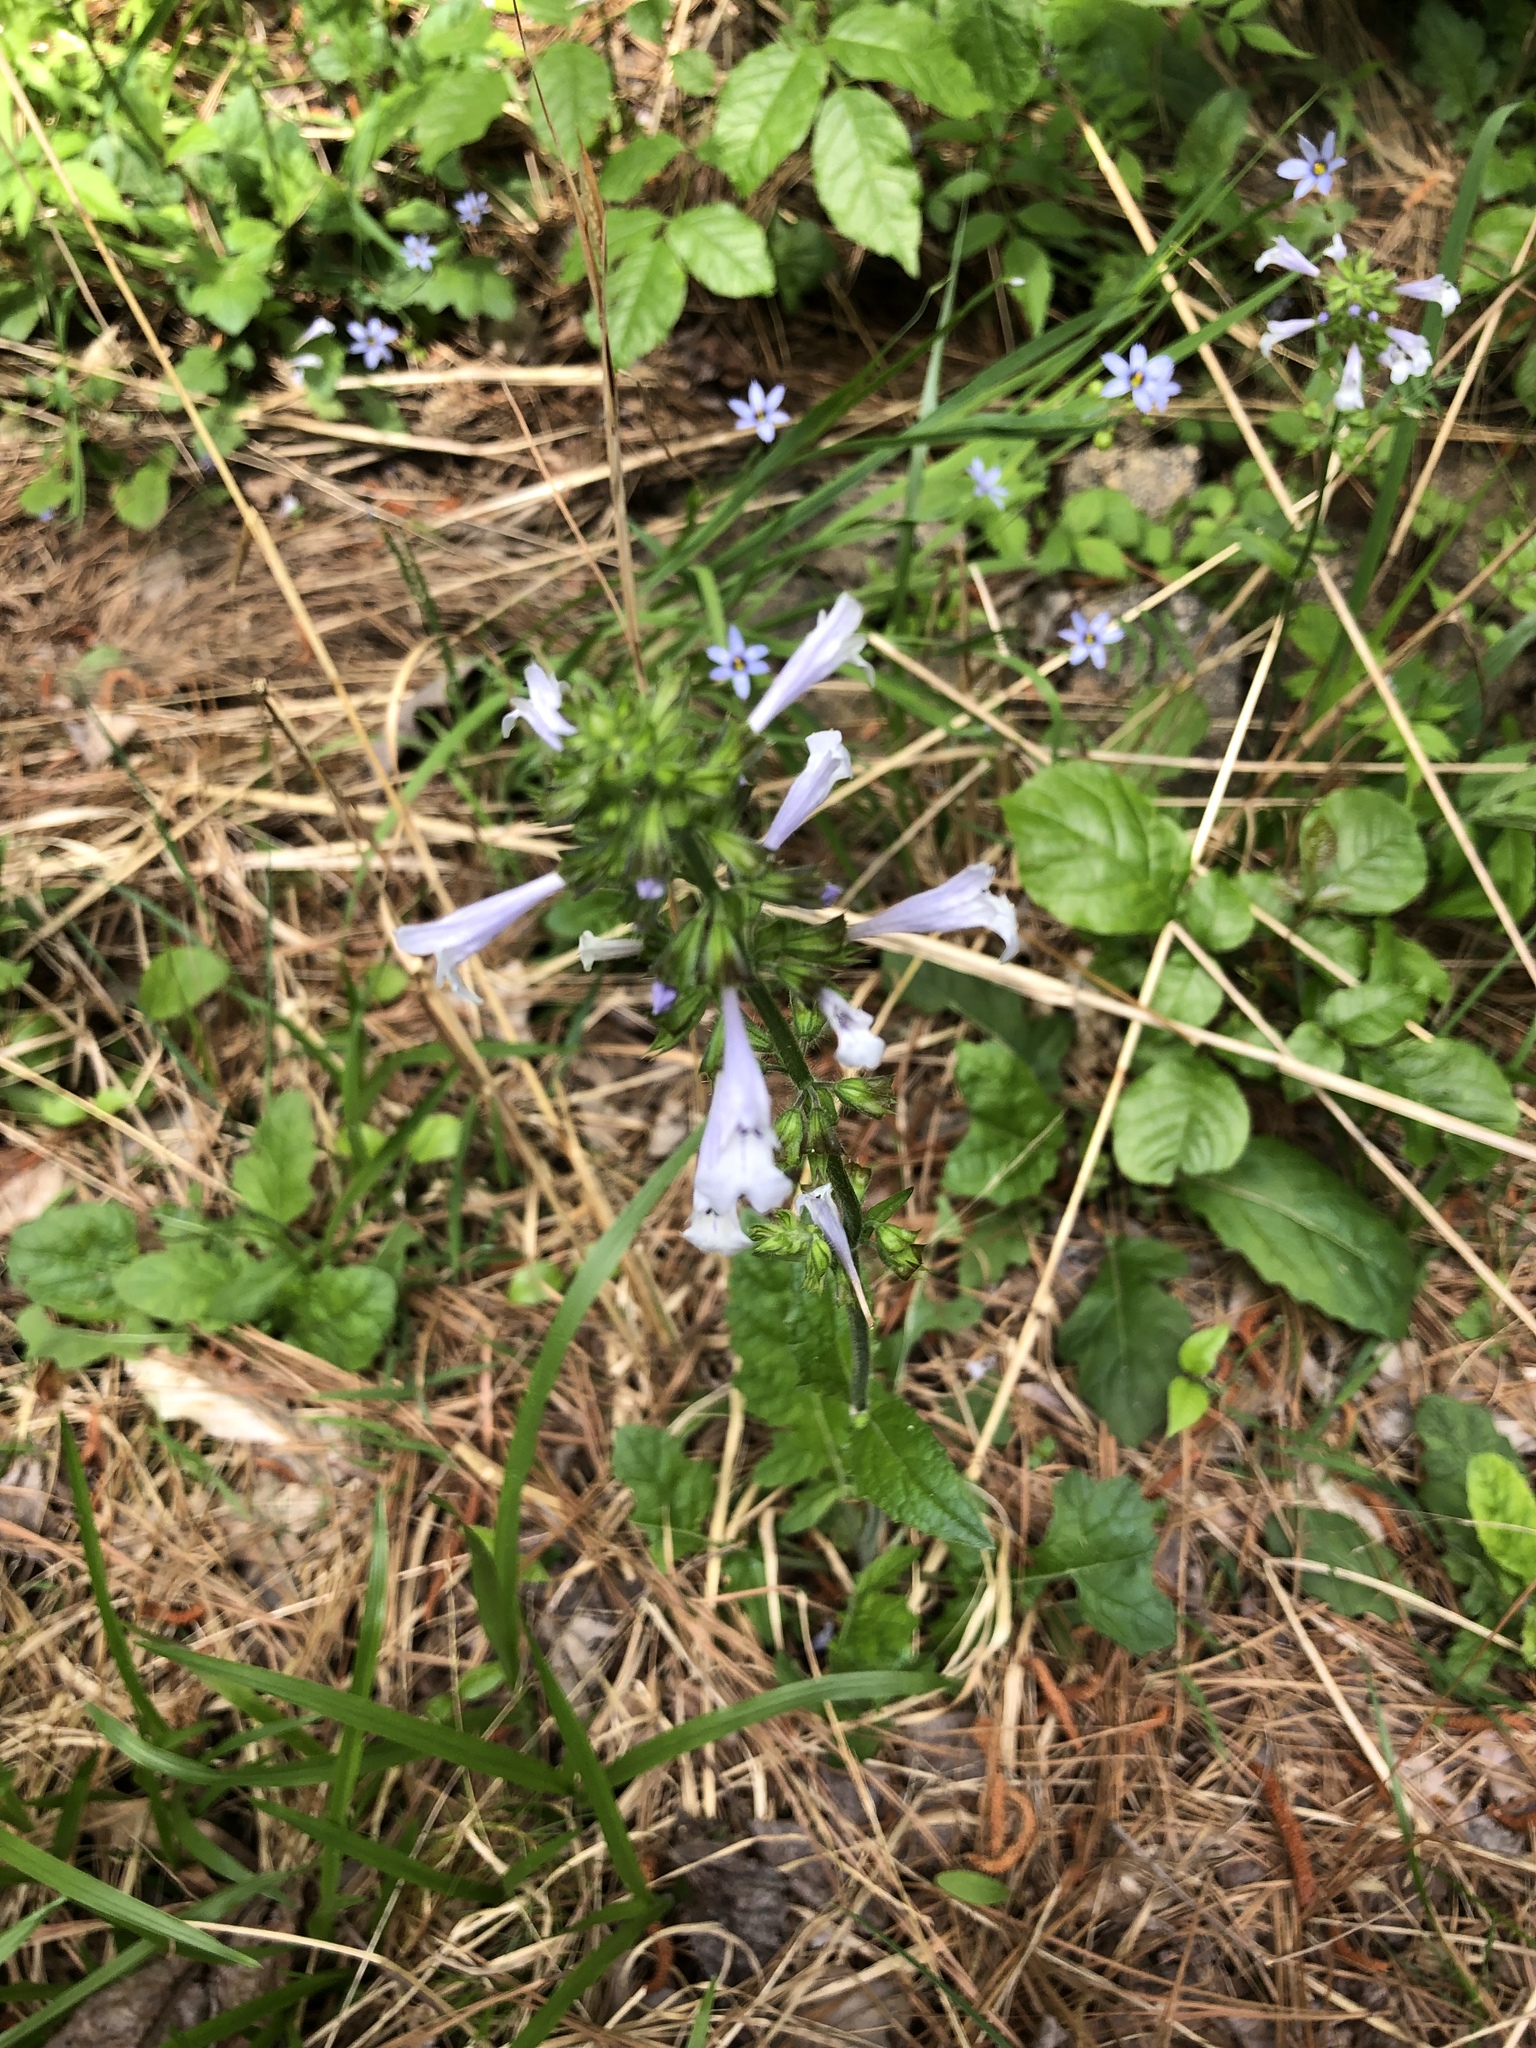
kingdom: Plantae
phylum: Tracheophyta
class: Magnoliopsida
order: Lamiales
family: Lamiaceae
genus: Salvia
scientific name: Salvia lyrata
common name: Cancerweed
